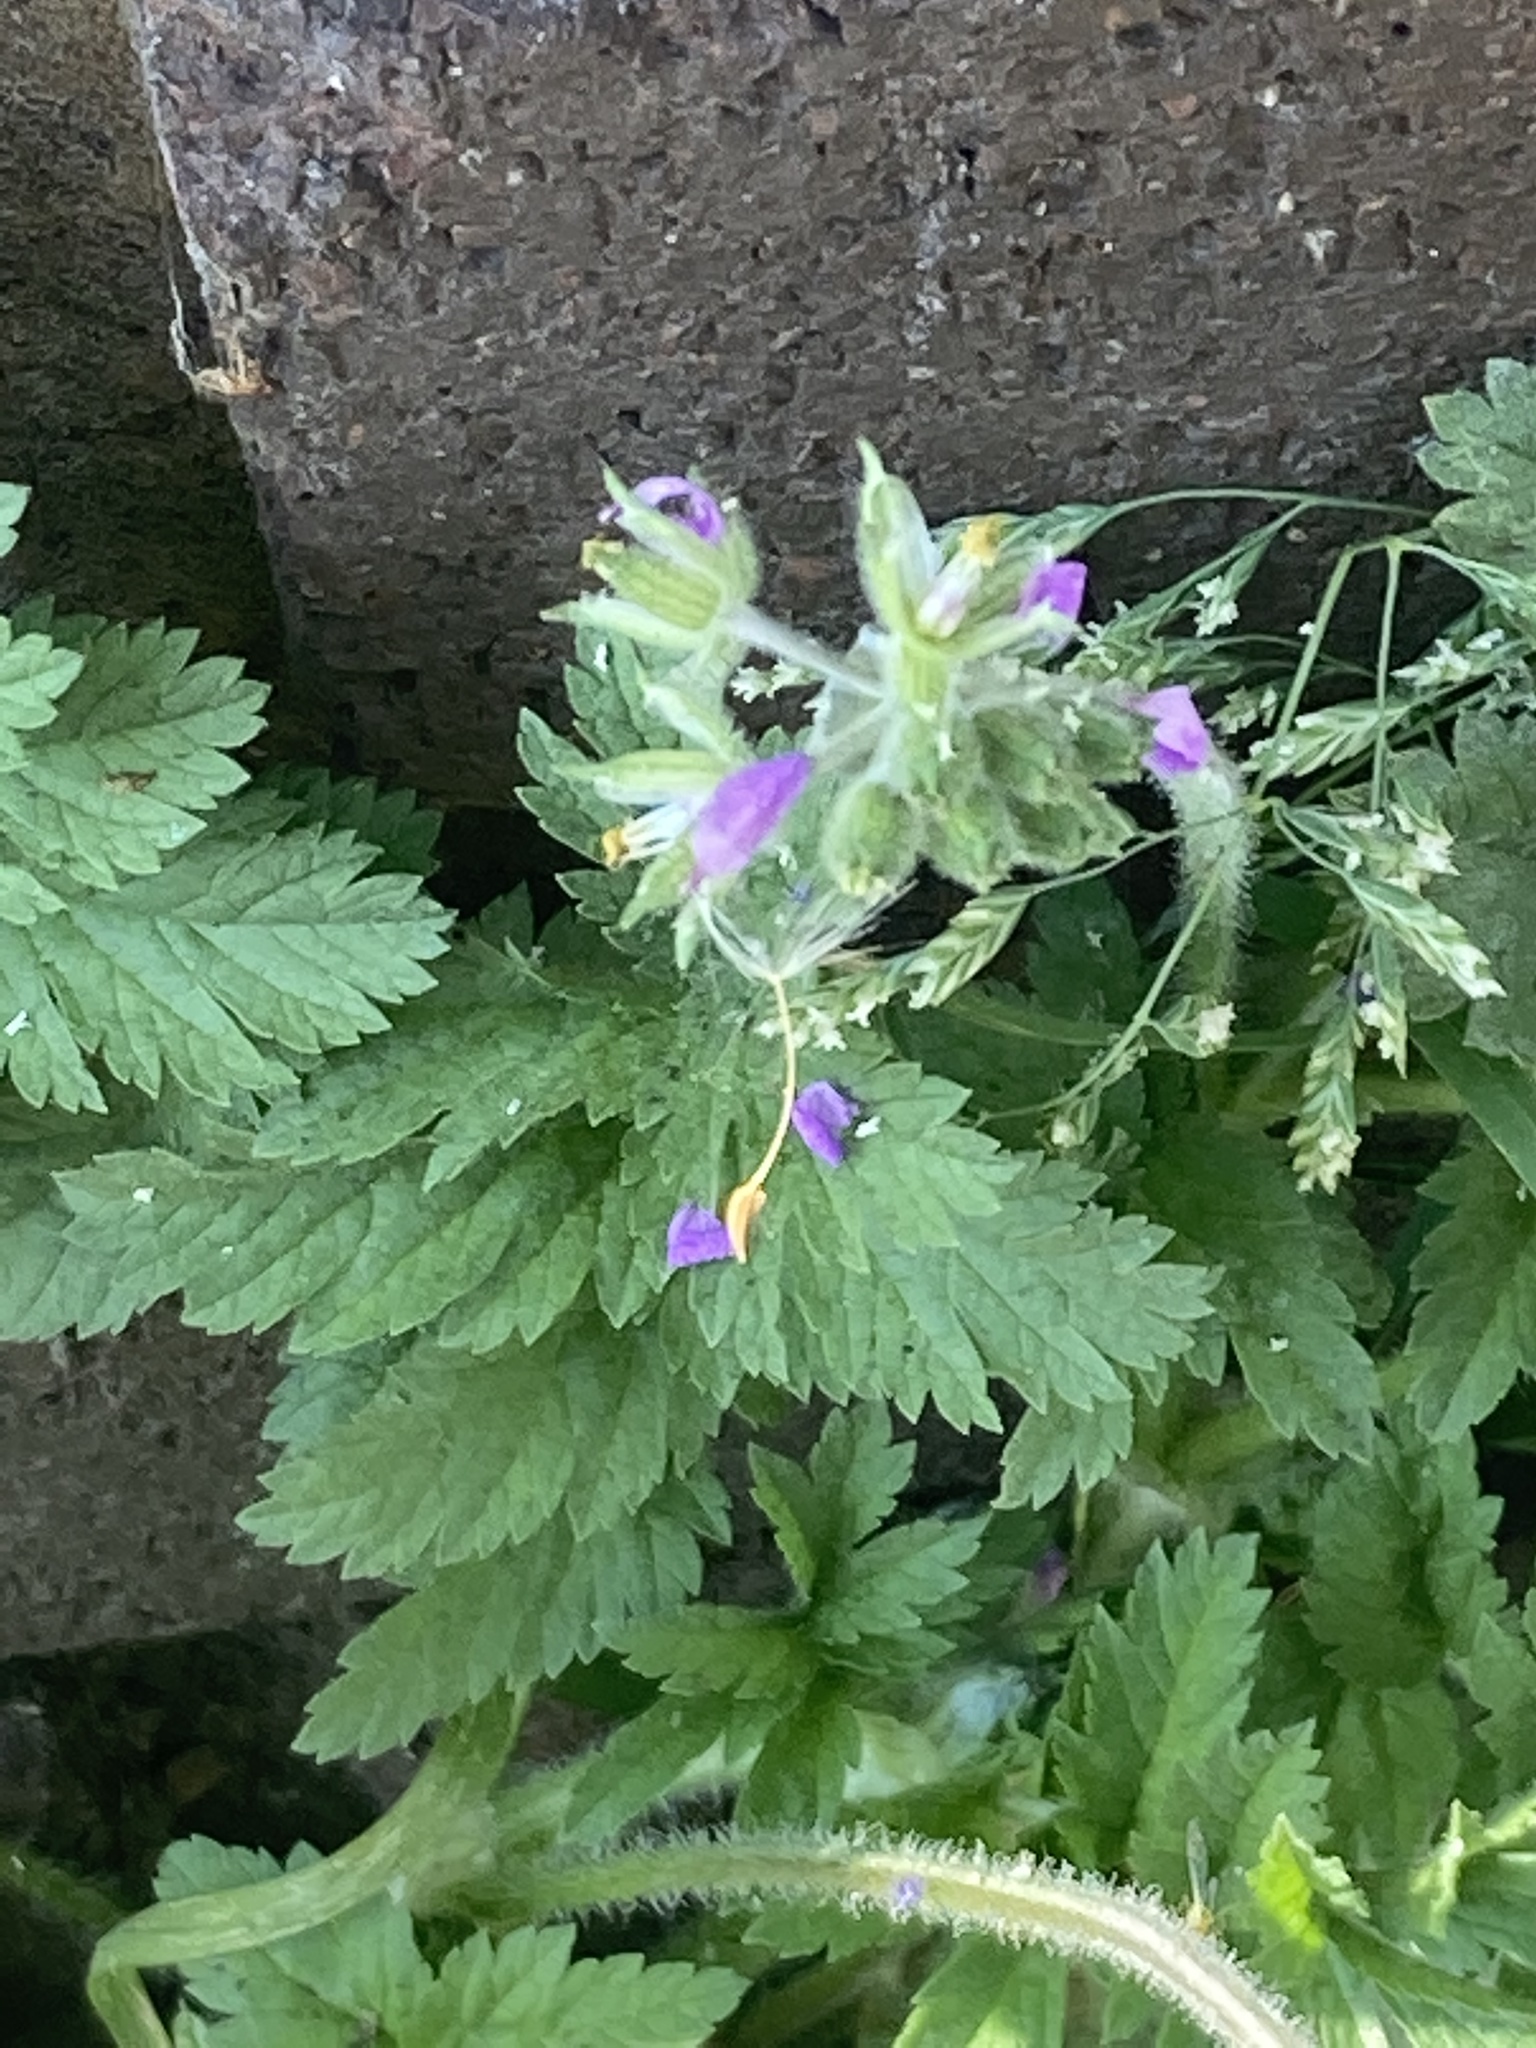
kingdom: Plantae
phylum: Tracheophyta
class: Magnoliopsida
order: Geraniales
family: Geraniaceae
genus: Erodium
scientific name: Erodium moschatum
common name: Musk stork's-bill
